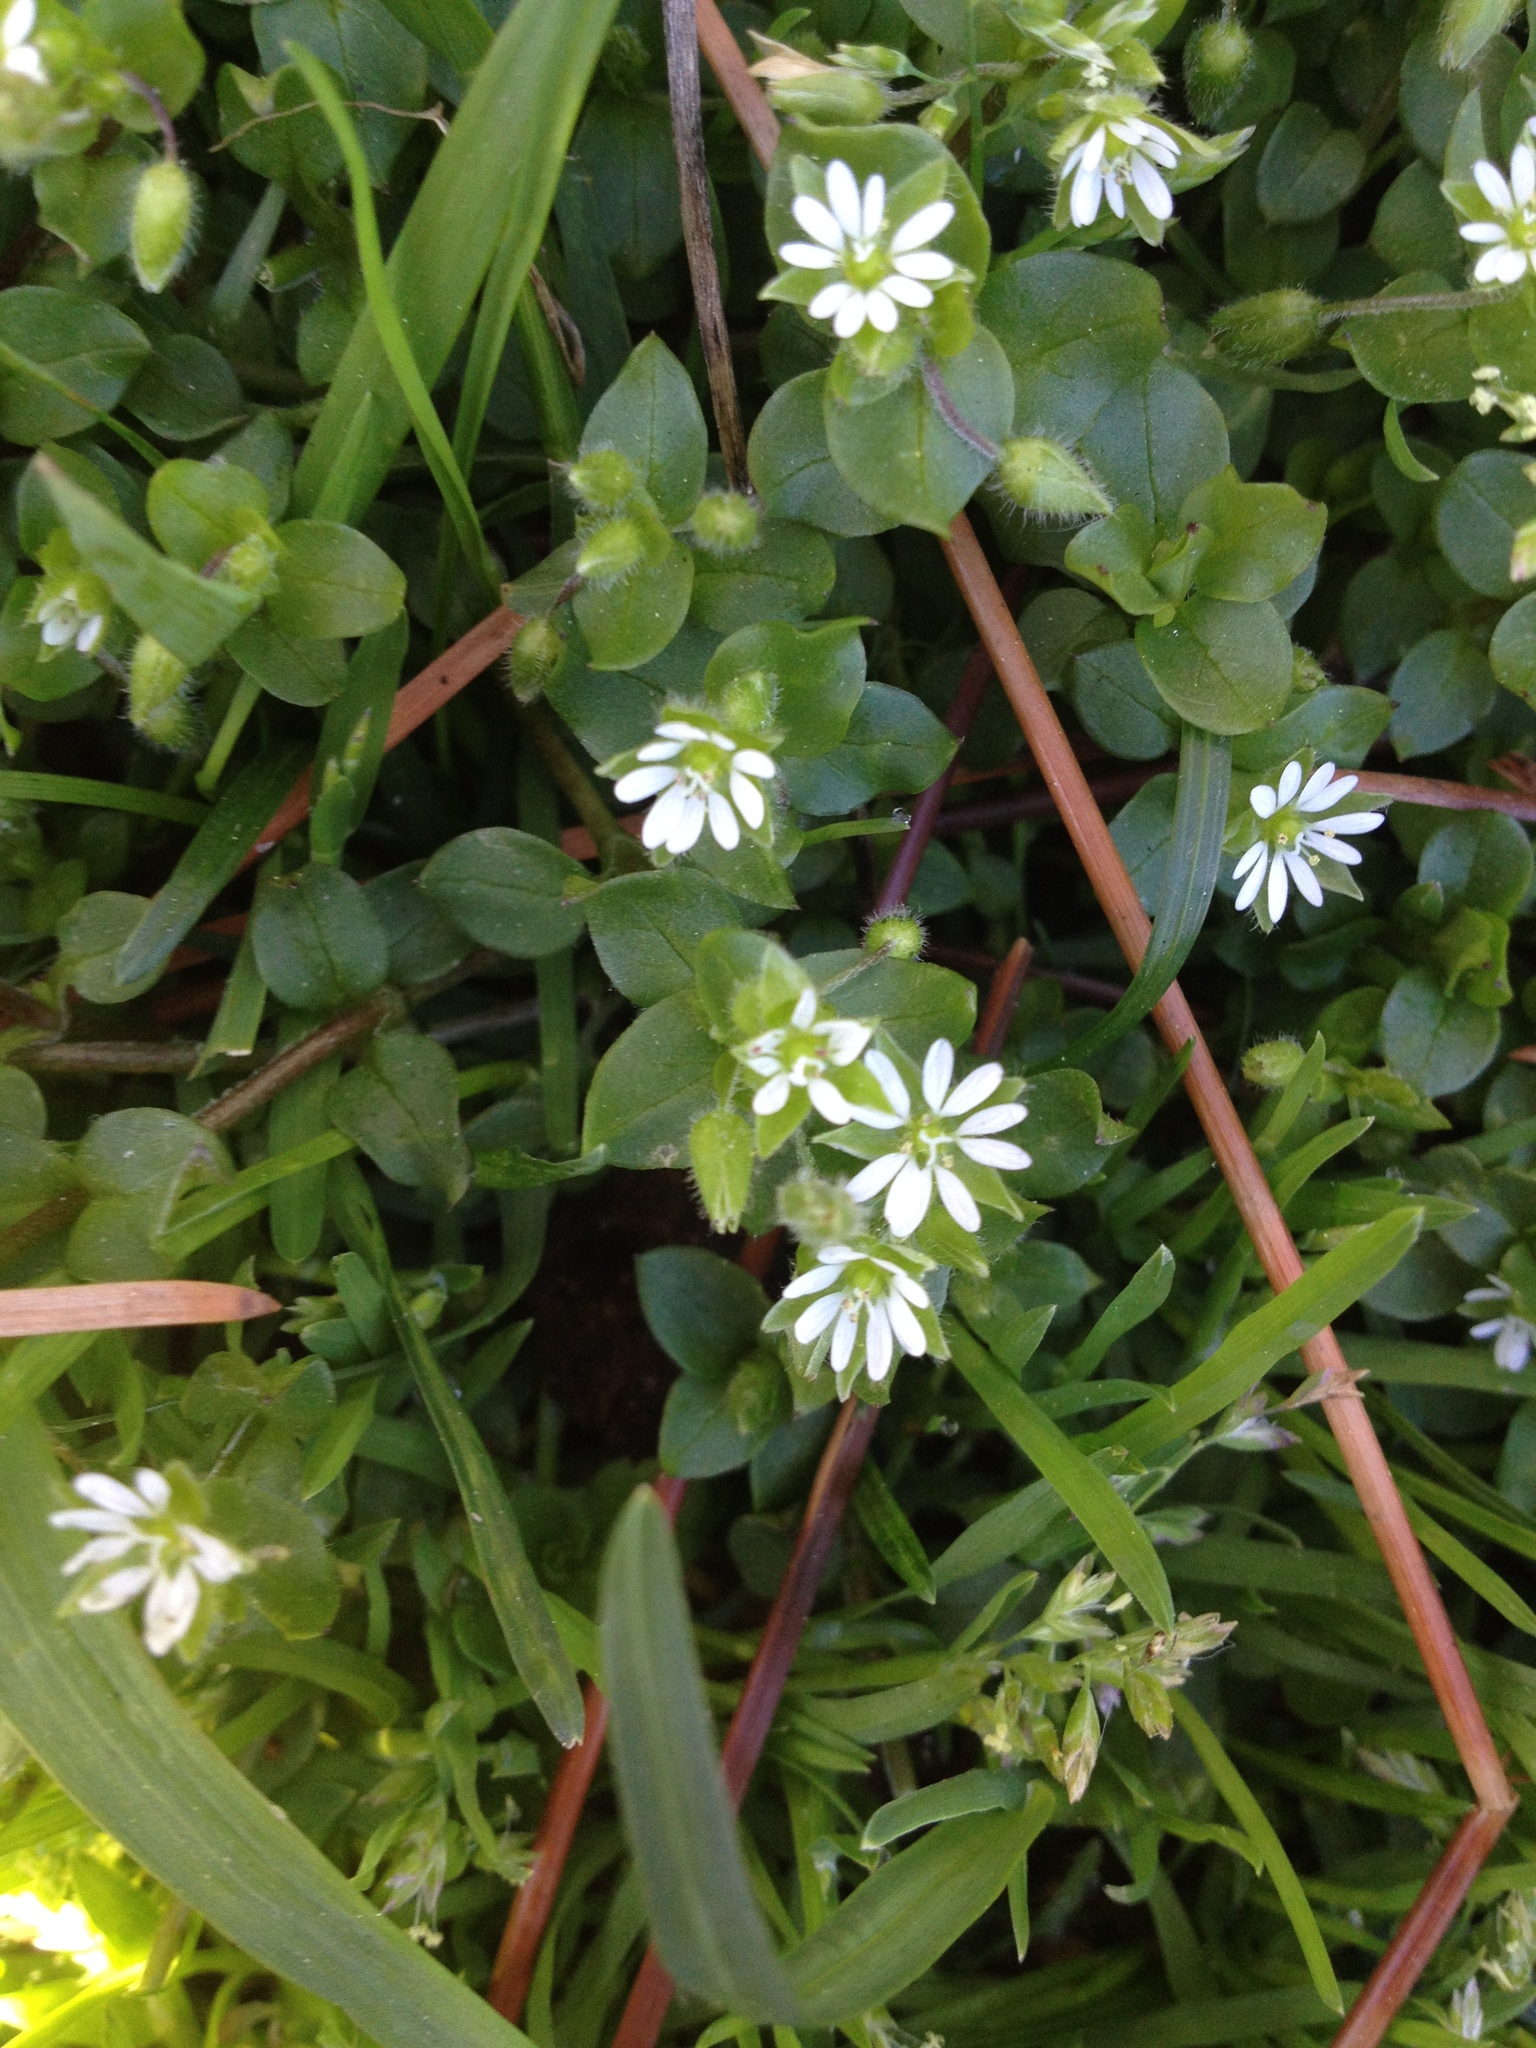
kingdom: Plantae
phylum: Tracheophyta
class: Magnoliopsida
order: Caryophyllales
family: Caryophyllaceae
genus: Stellaria
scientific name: Stellaria media
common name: Common chickweed
